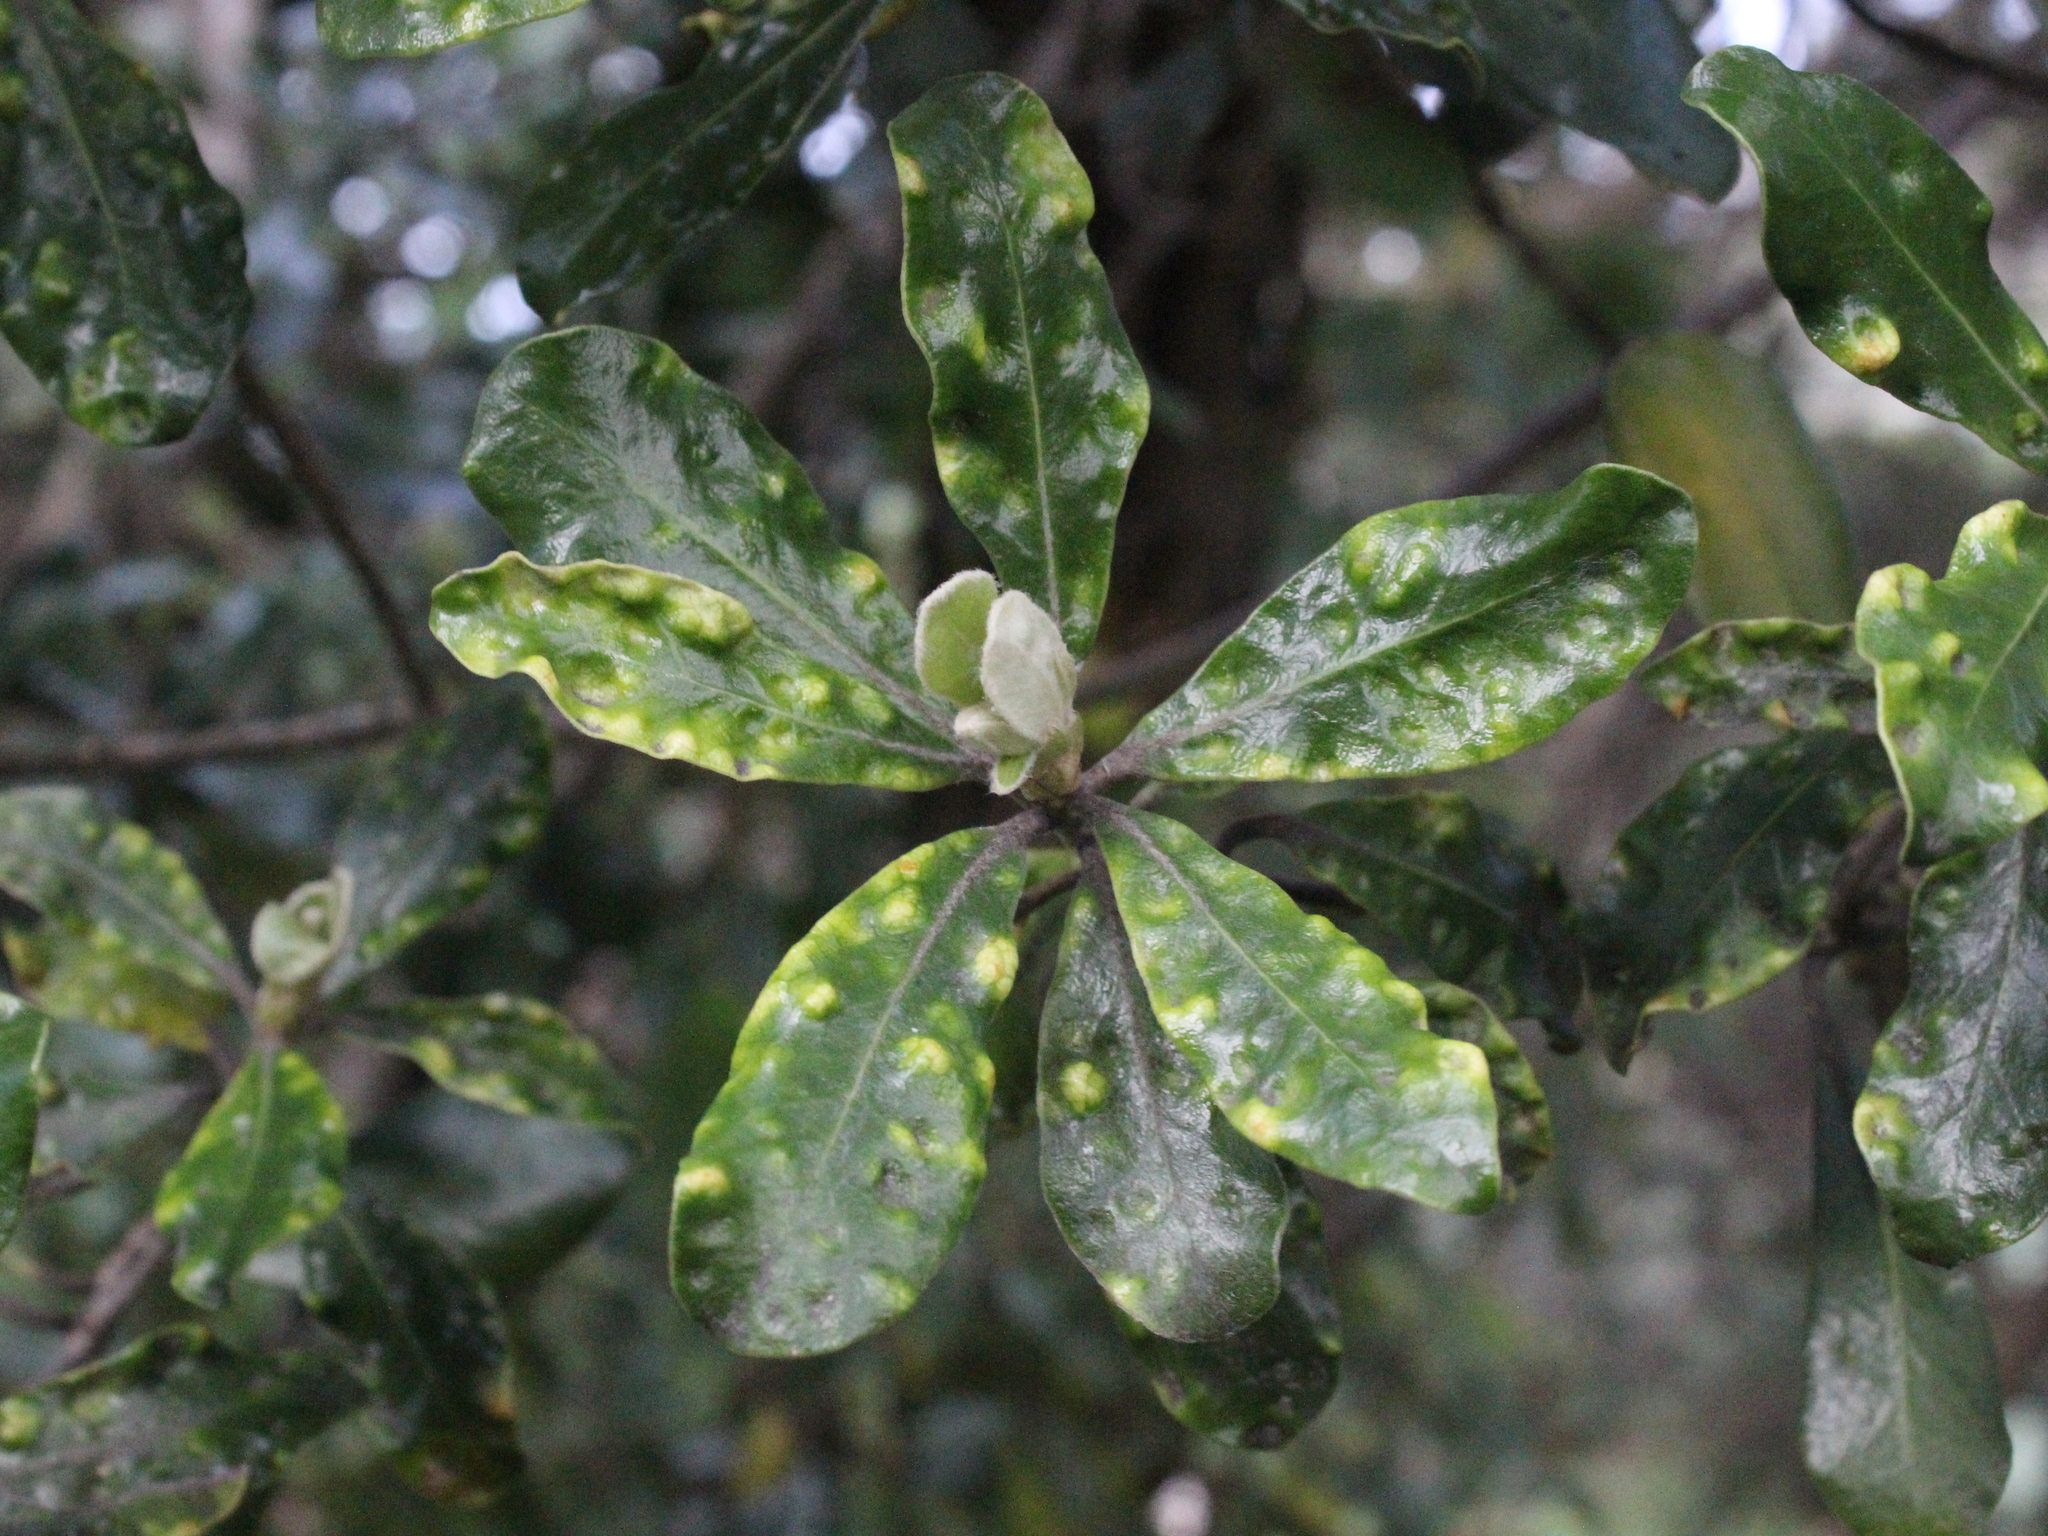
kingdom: Plantae
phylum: Tracheophyta
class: Magnoliopsida
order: Apiales
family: Pittosporaceae
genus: Pittosporum
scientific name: Pittosporum crassifolium
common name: Karo
